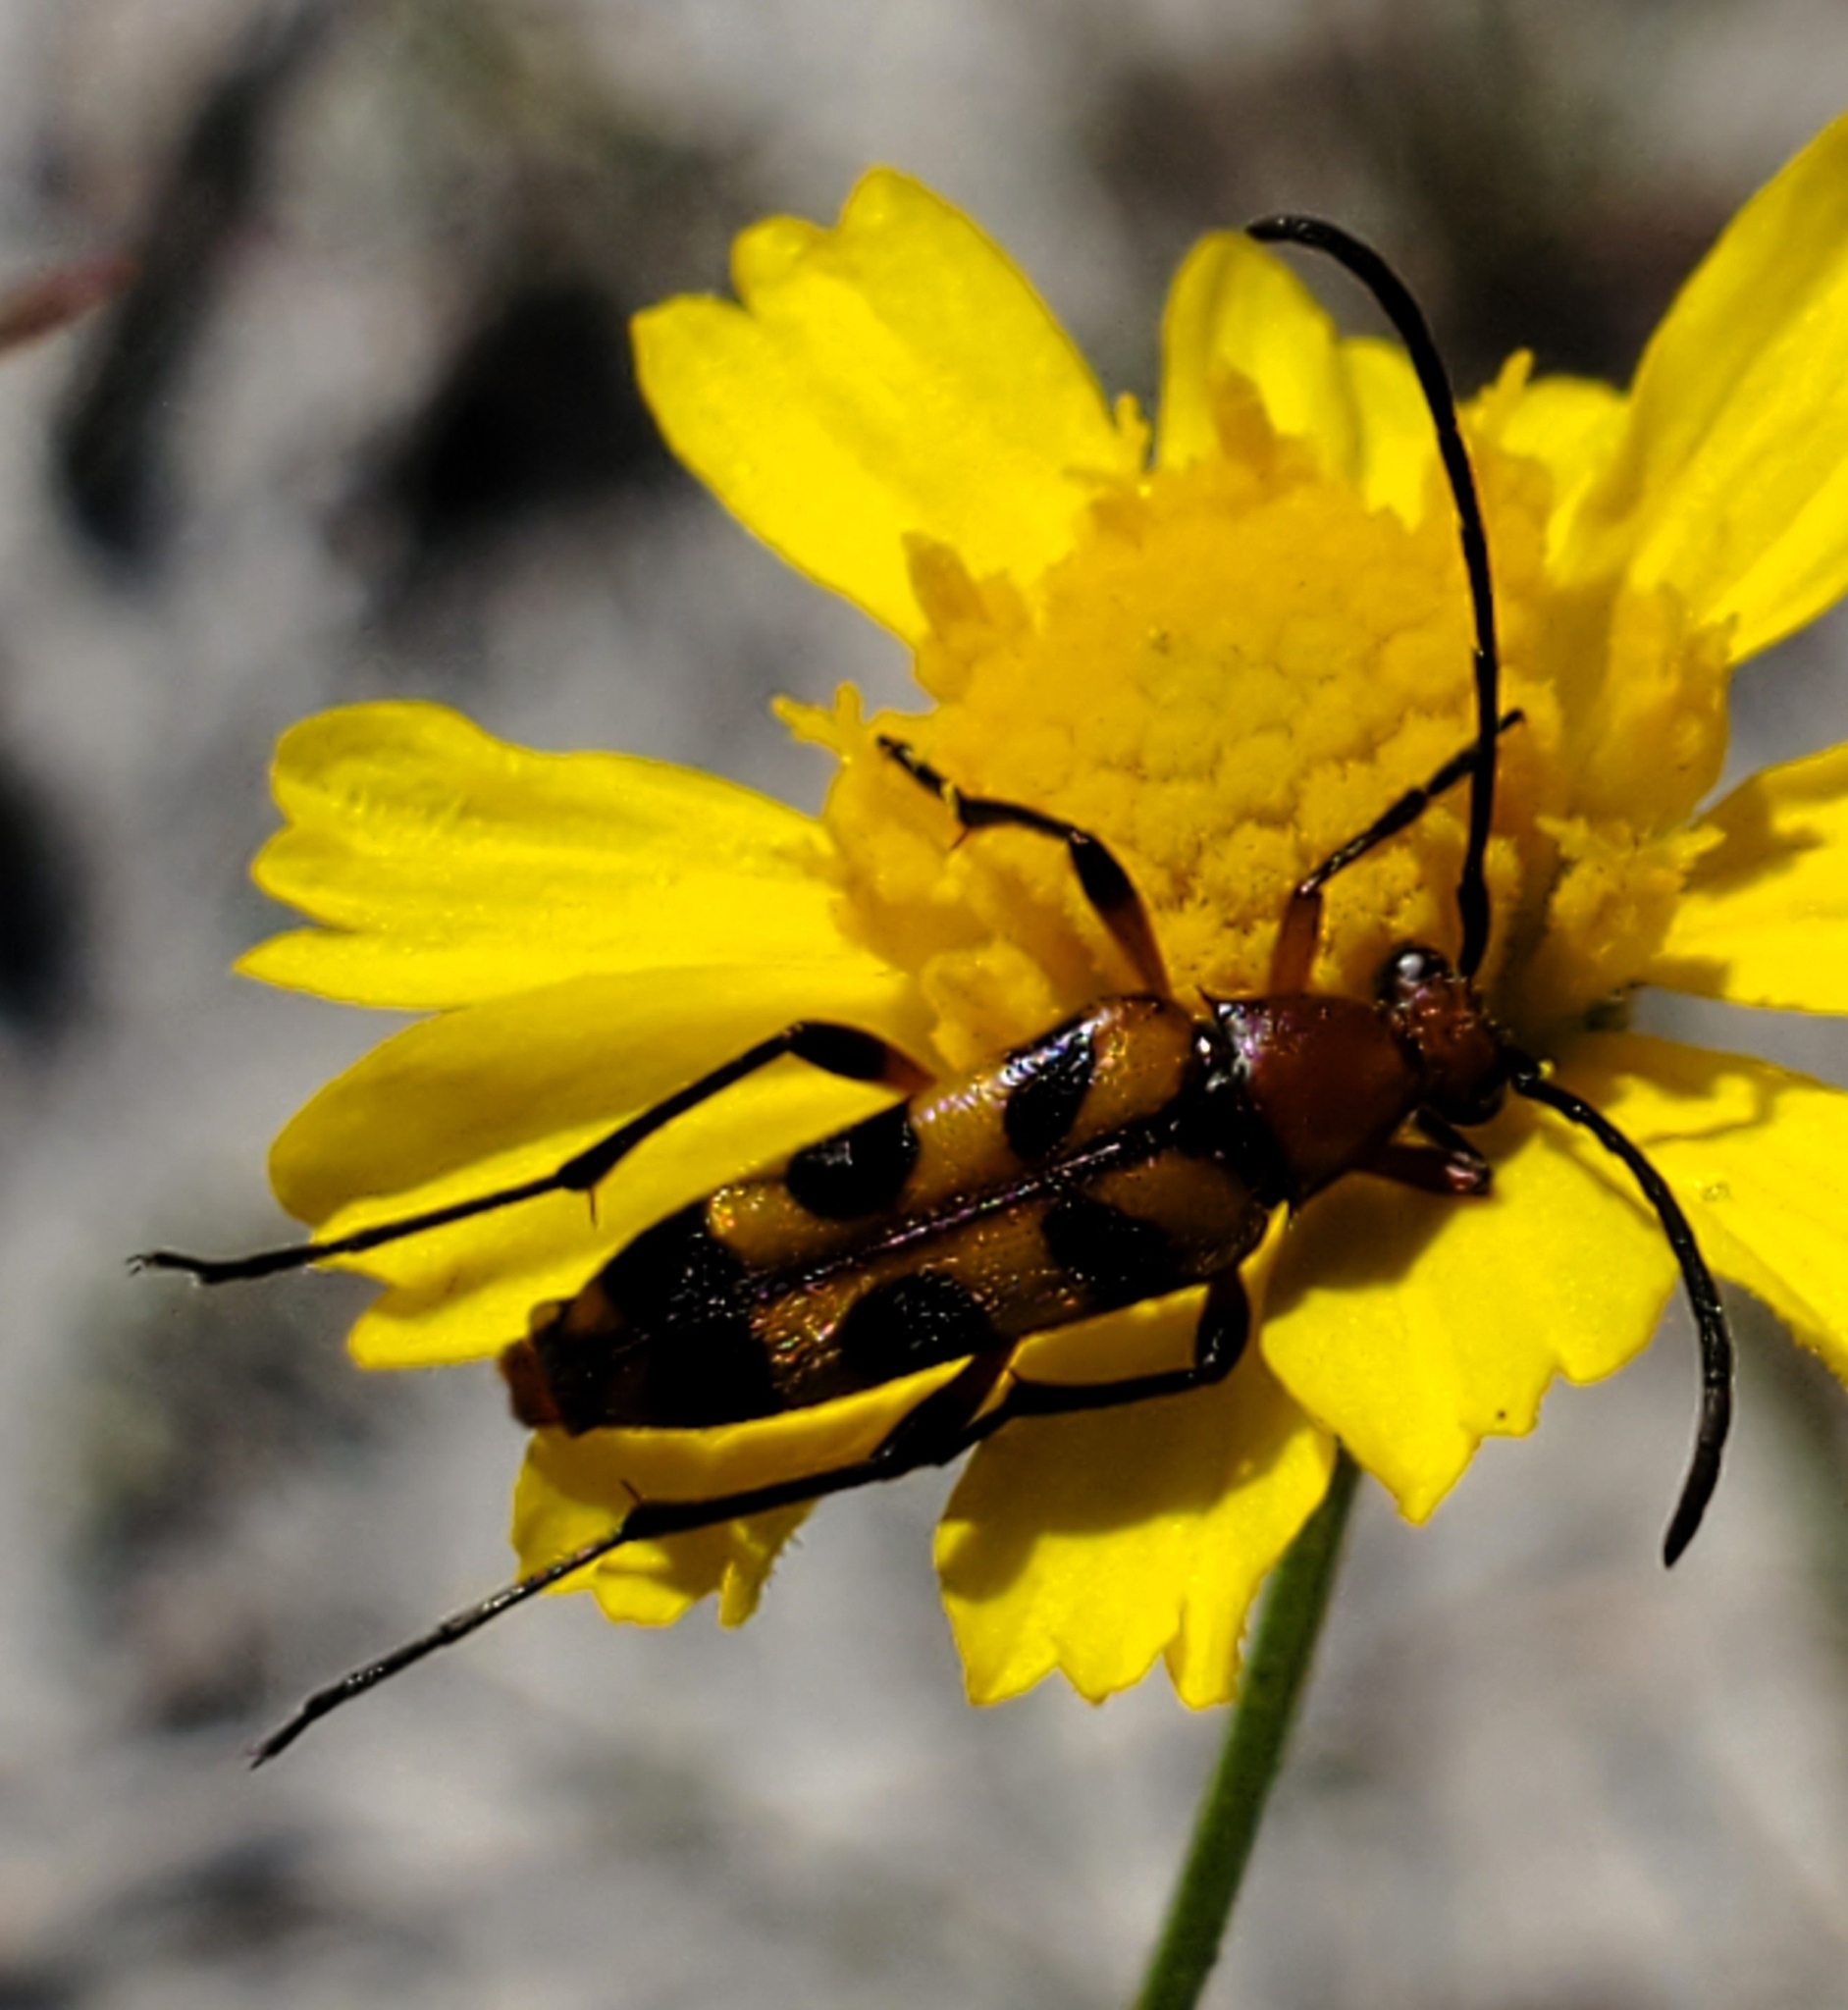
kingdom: Animalia
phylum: Arthropoda
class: Insecta
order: Coleoptera
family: Cerambycidae
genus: Strangalia
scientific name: Strangalia sexnotata
